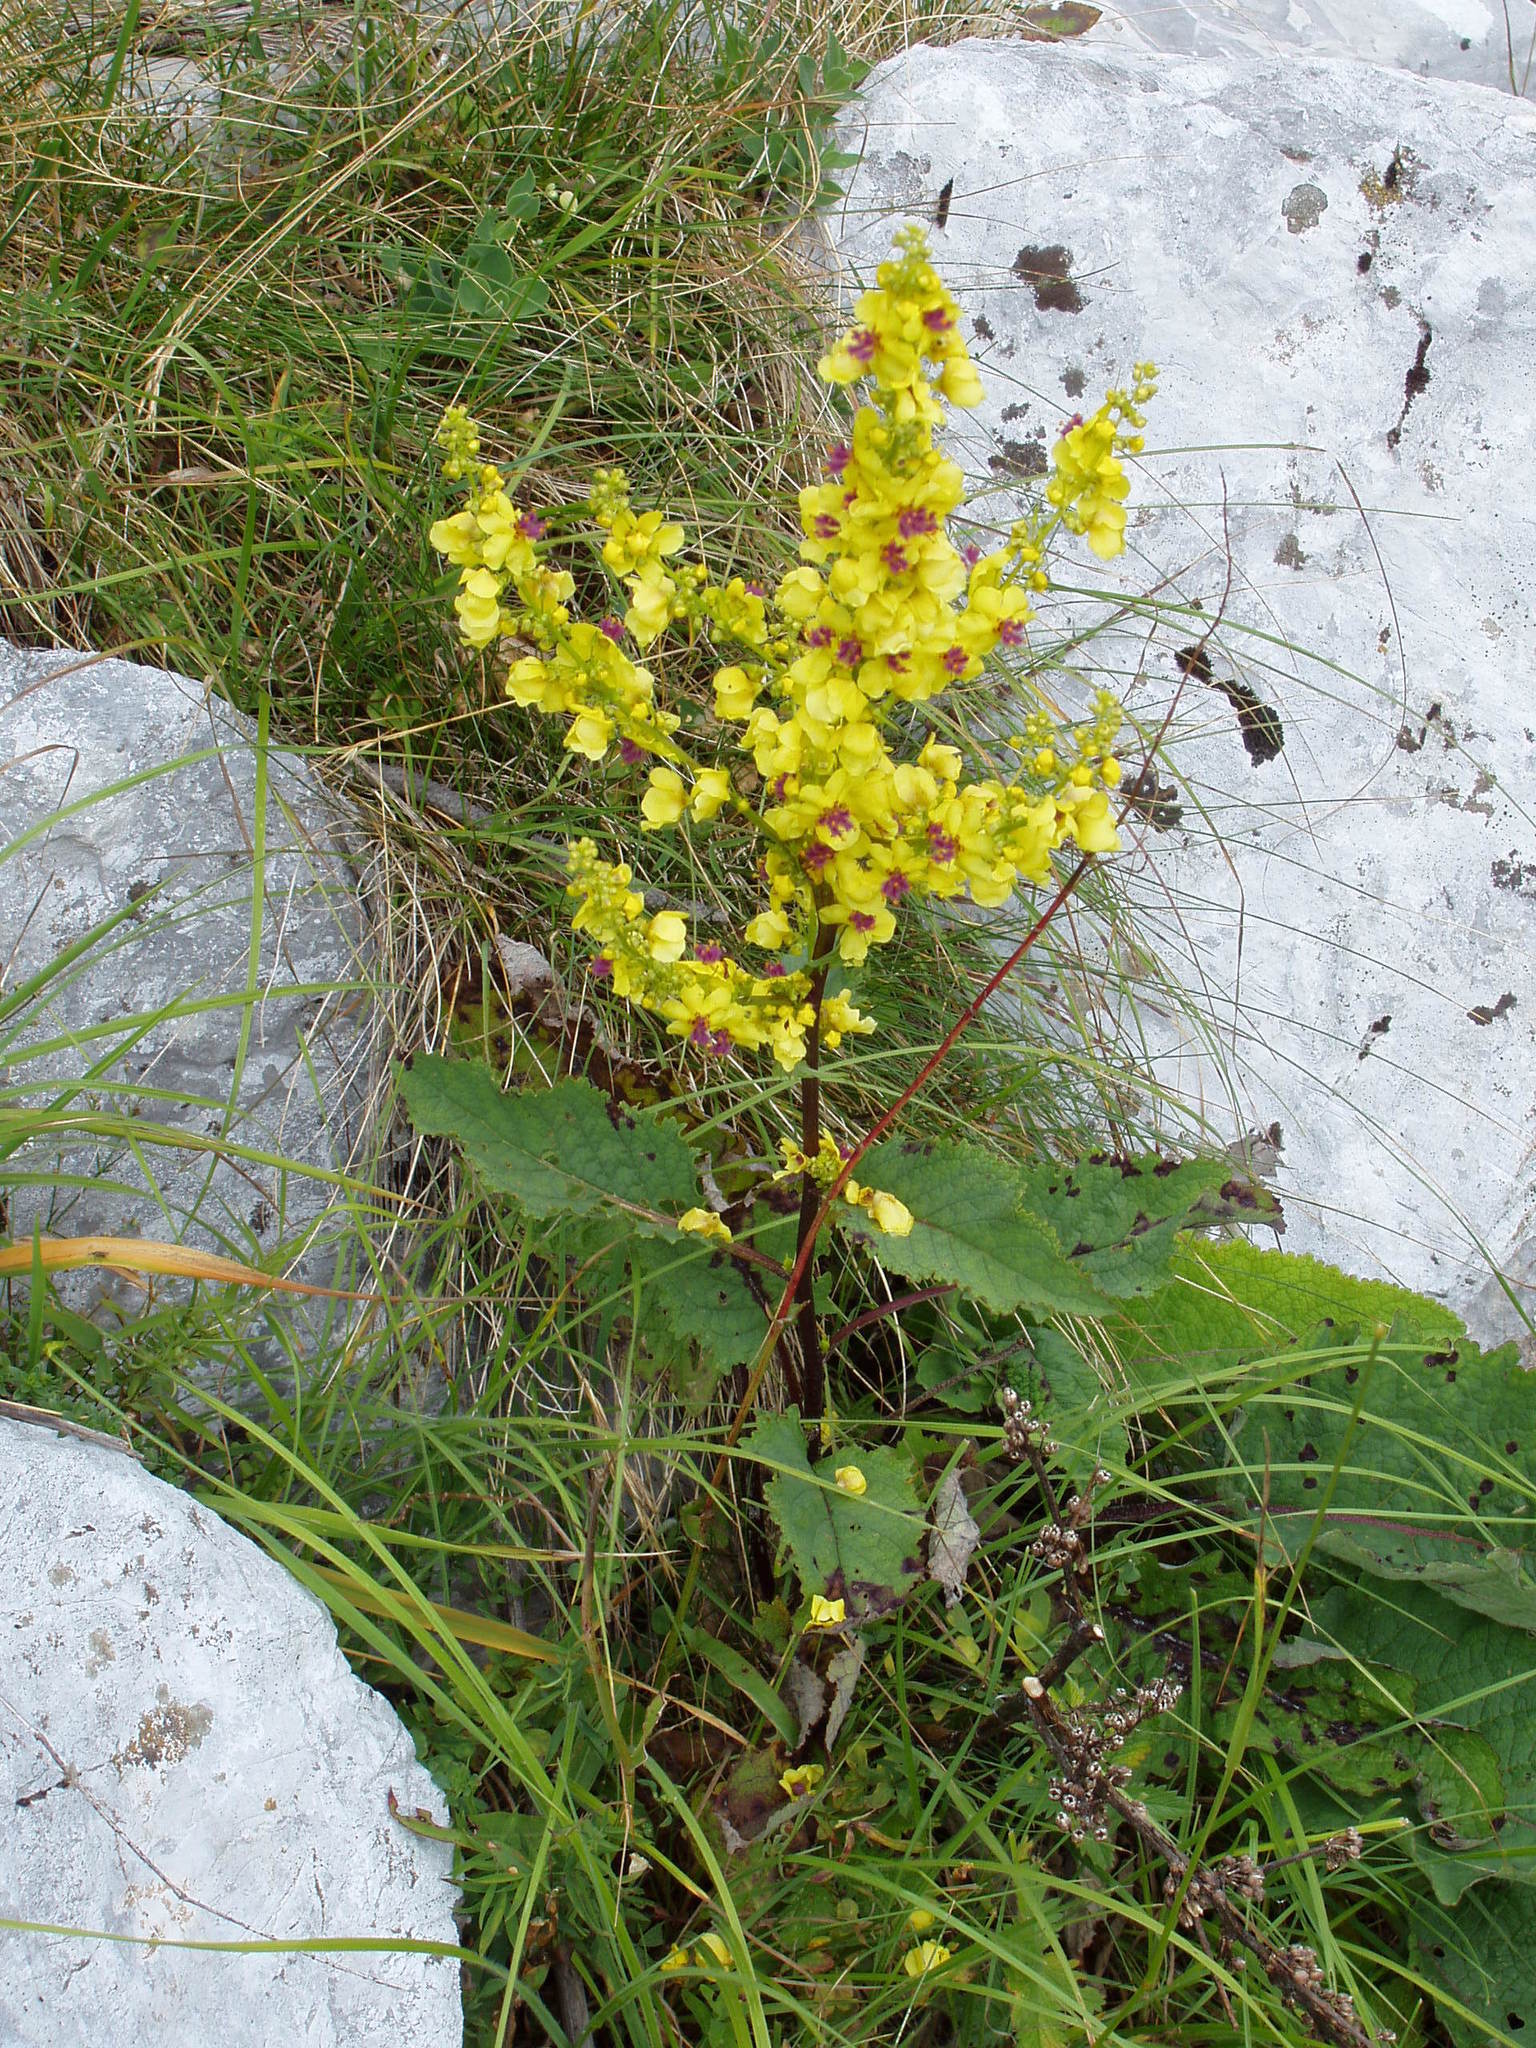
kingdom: Plantae
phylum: Tracheophyta
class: Magnoliopsida
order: Lamiales
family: Scrophulariaceae
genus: Verbascum
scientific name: Verbascum nigrum
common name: Dark mullein
